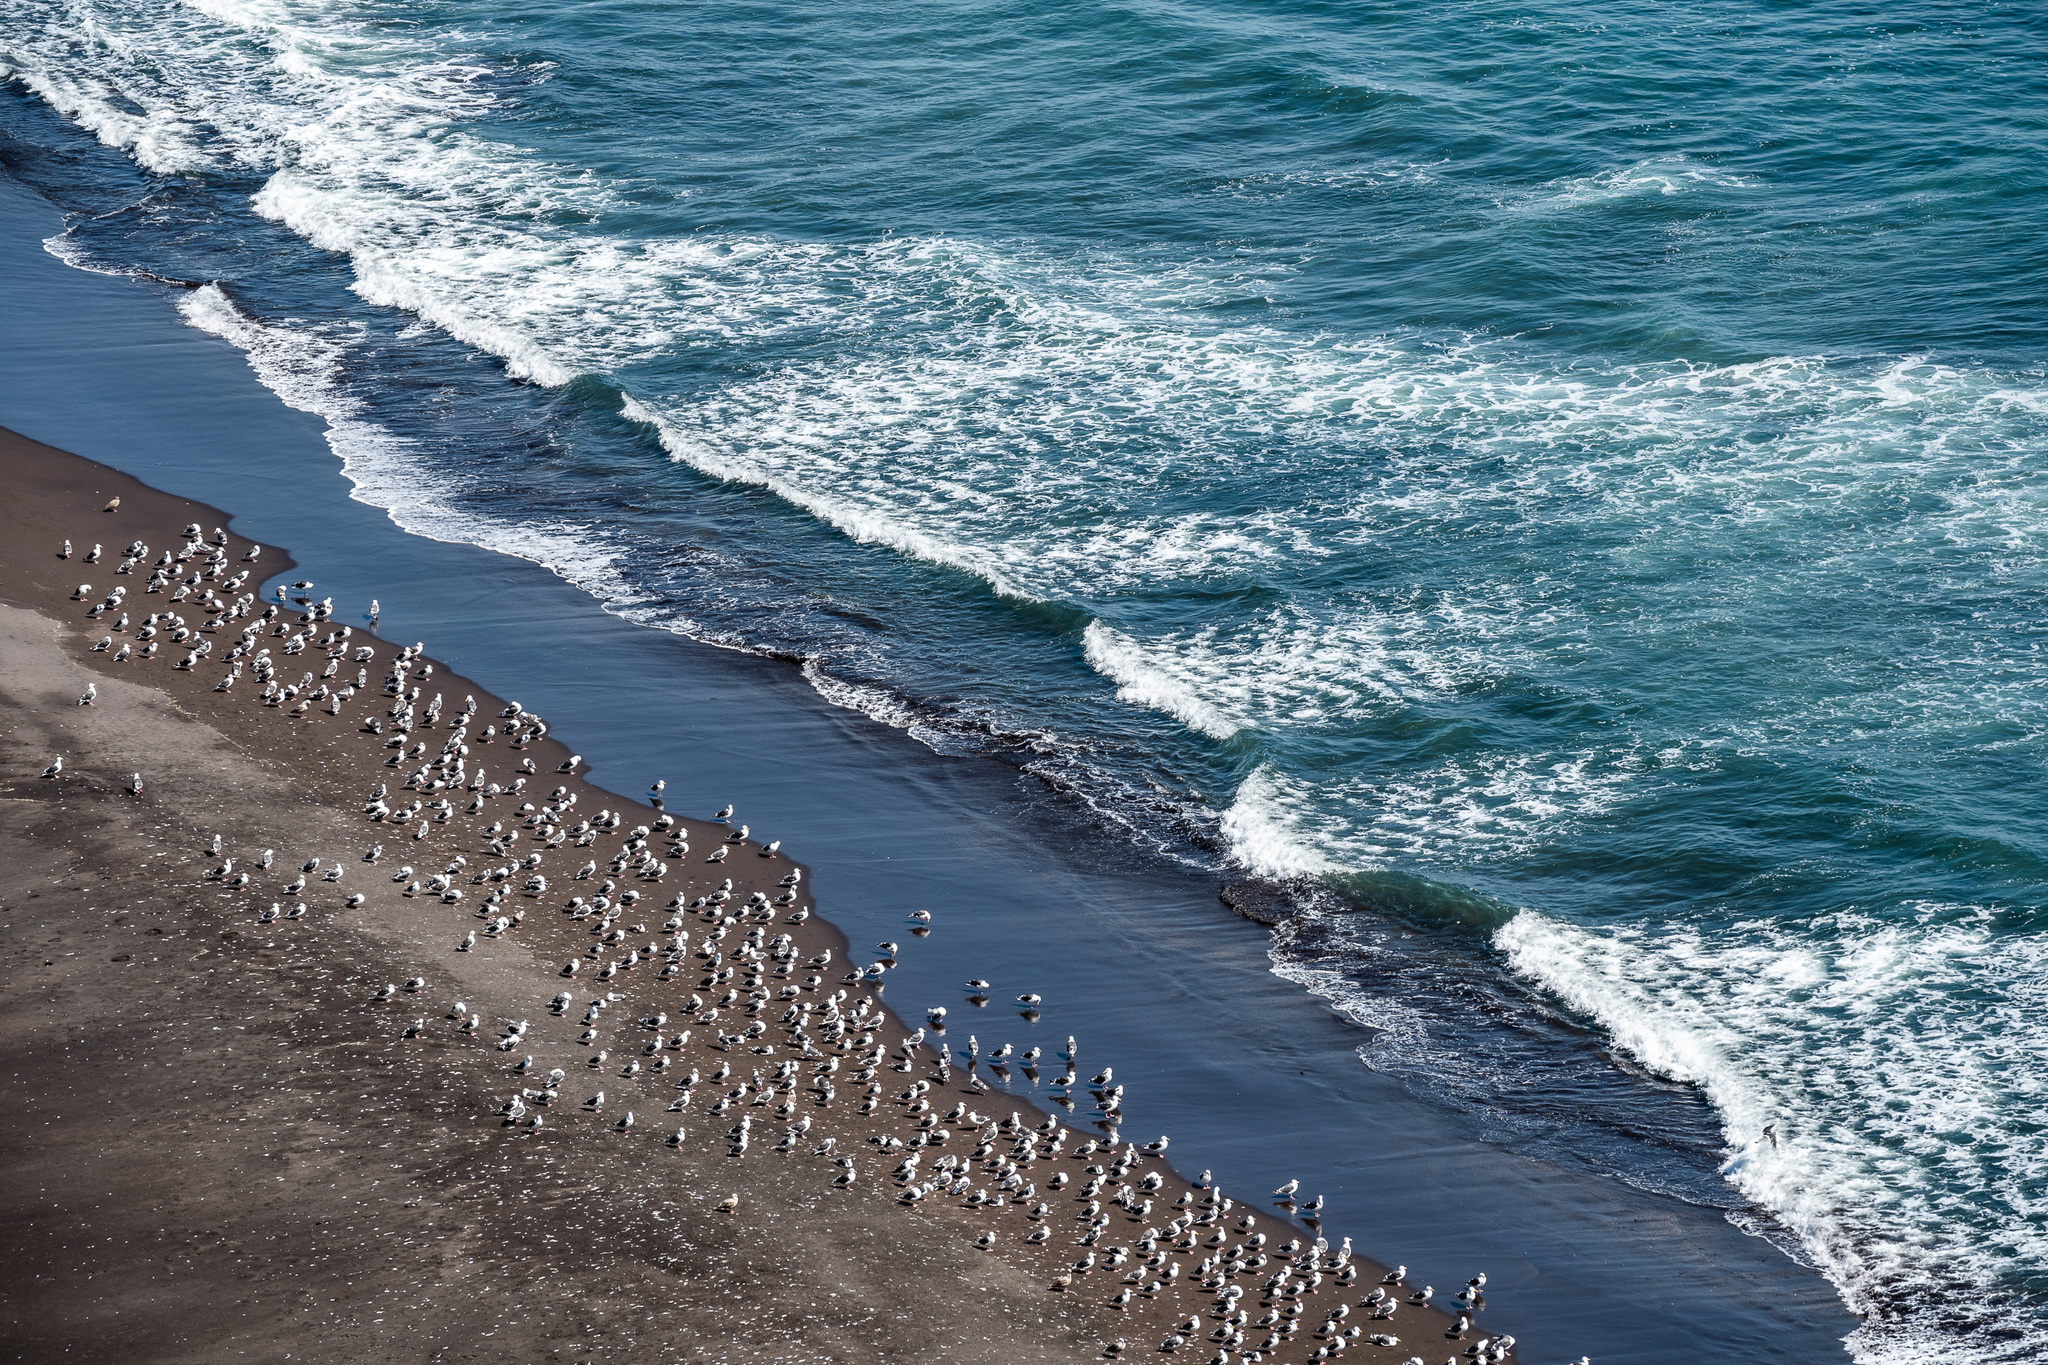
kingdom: Animalia
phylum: Chordata
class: Aves
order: Charadriiformes
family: Laridae
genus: Larus
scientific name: Larus schistisagus
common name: Slaty-backed gull
